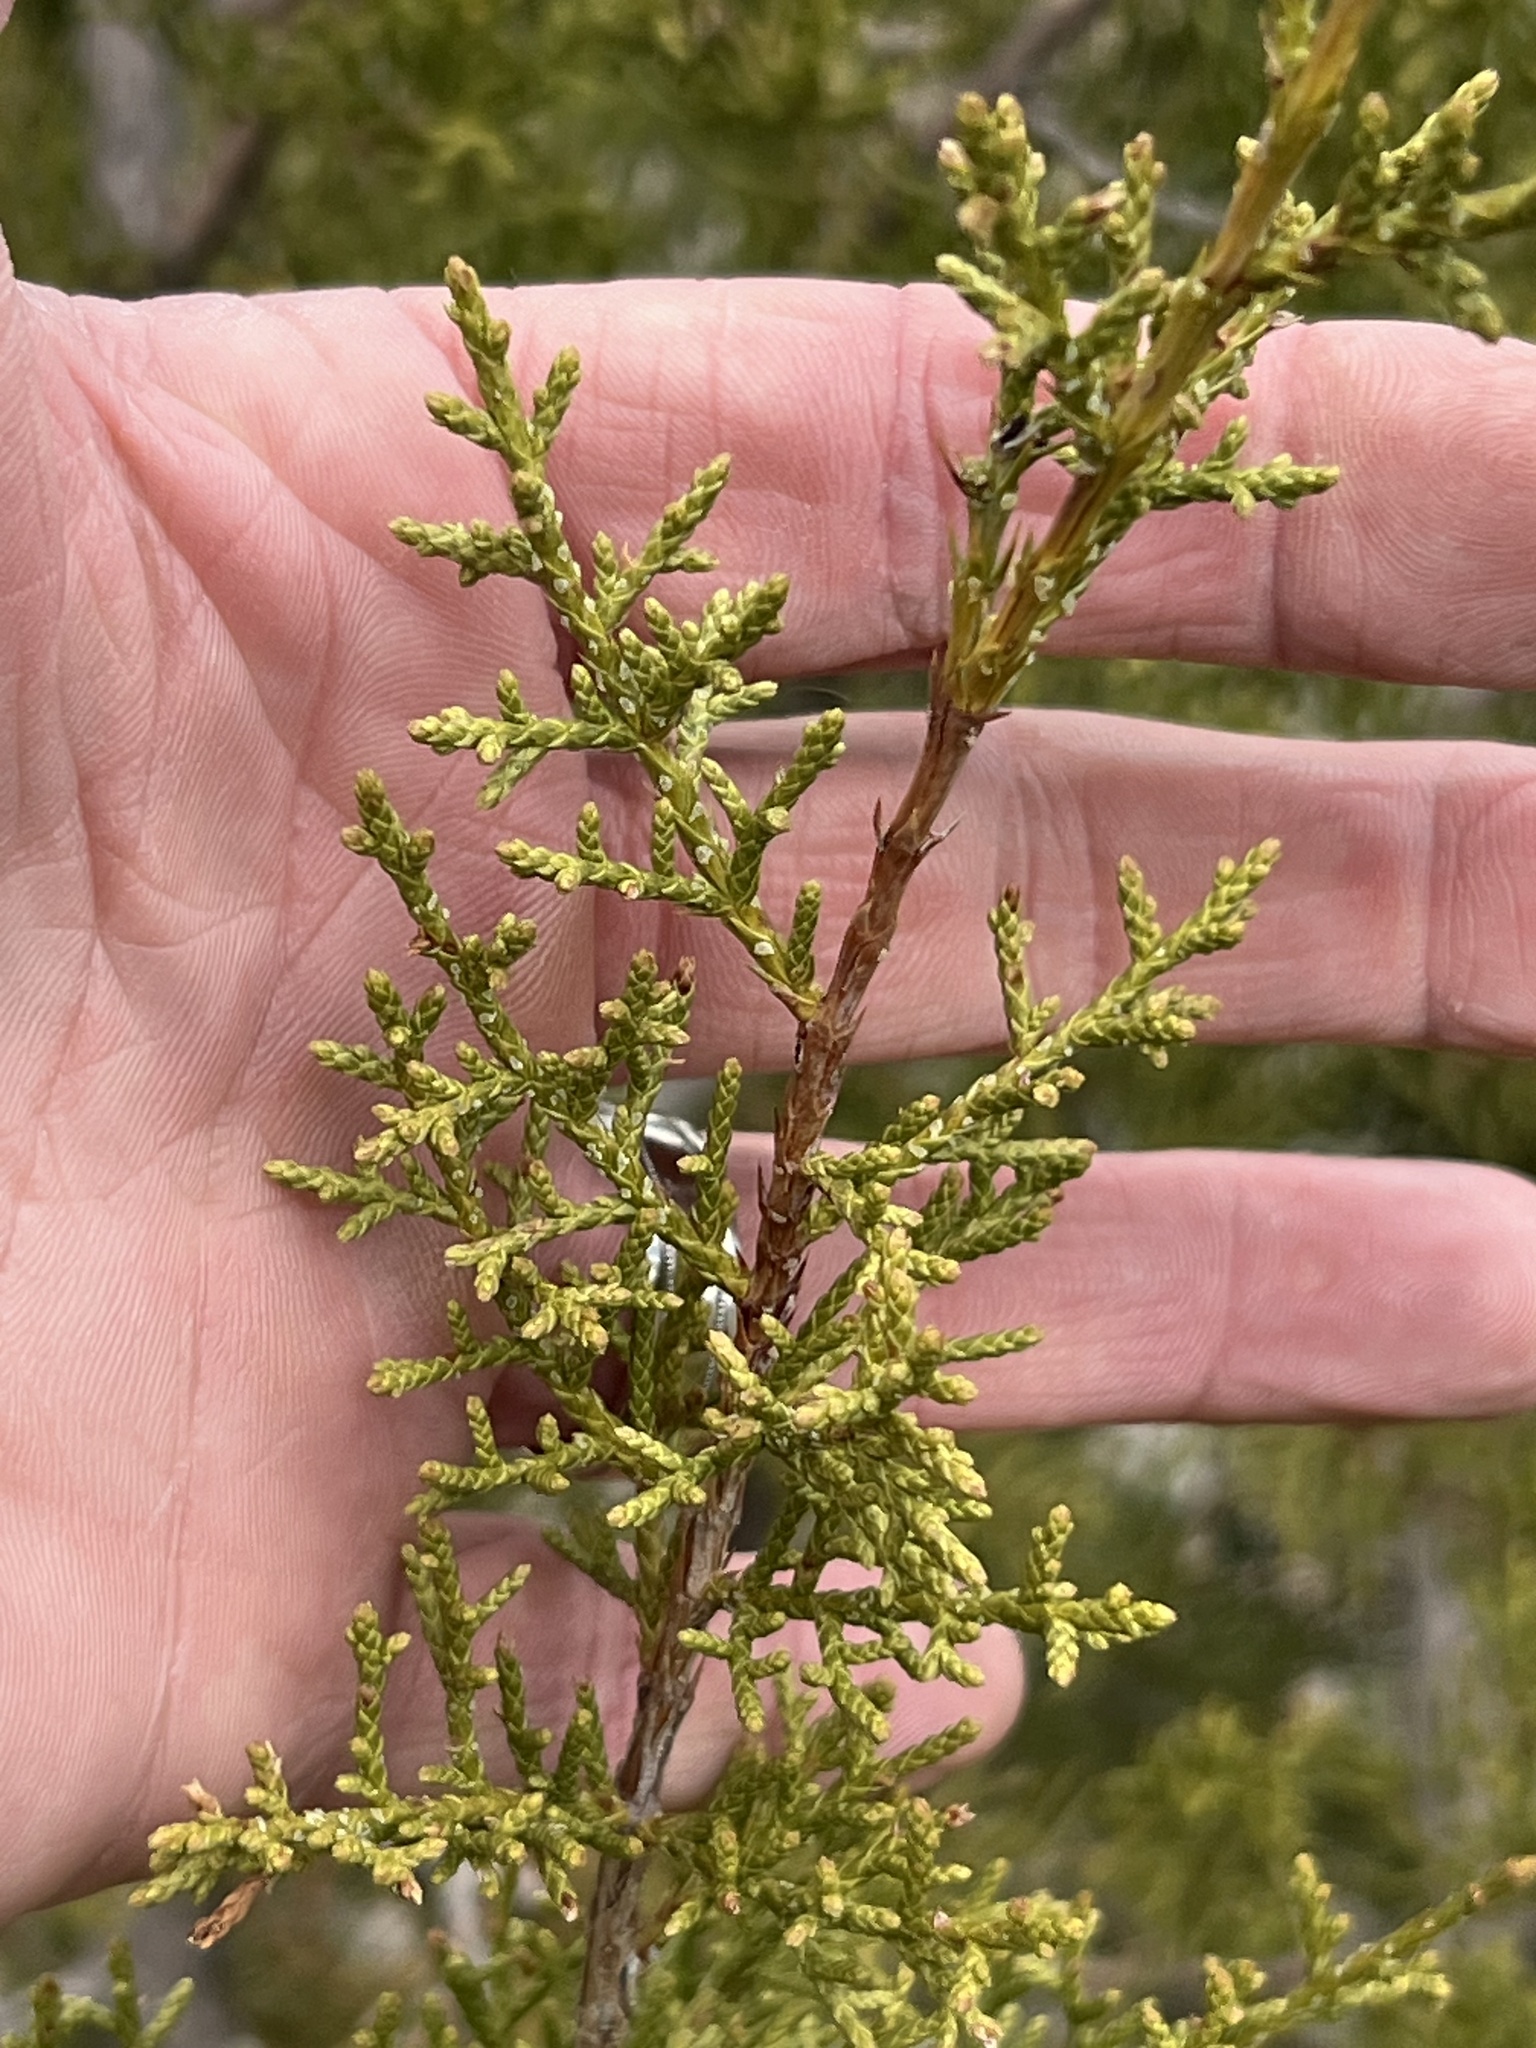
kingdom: Plantae
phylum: Tracheophyta
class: Pinopsida
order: Pinales
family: Cupressaceae
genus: Juniperus
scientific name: Juniperus pinchotii
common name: Pinchot juniper
